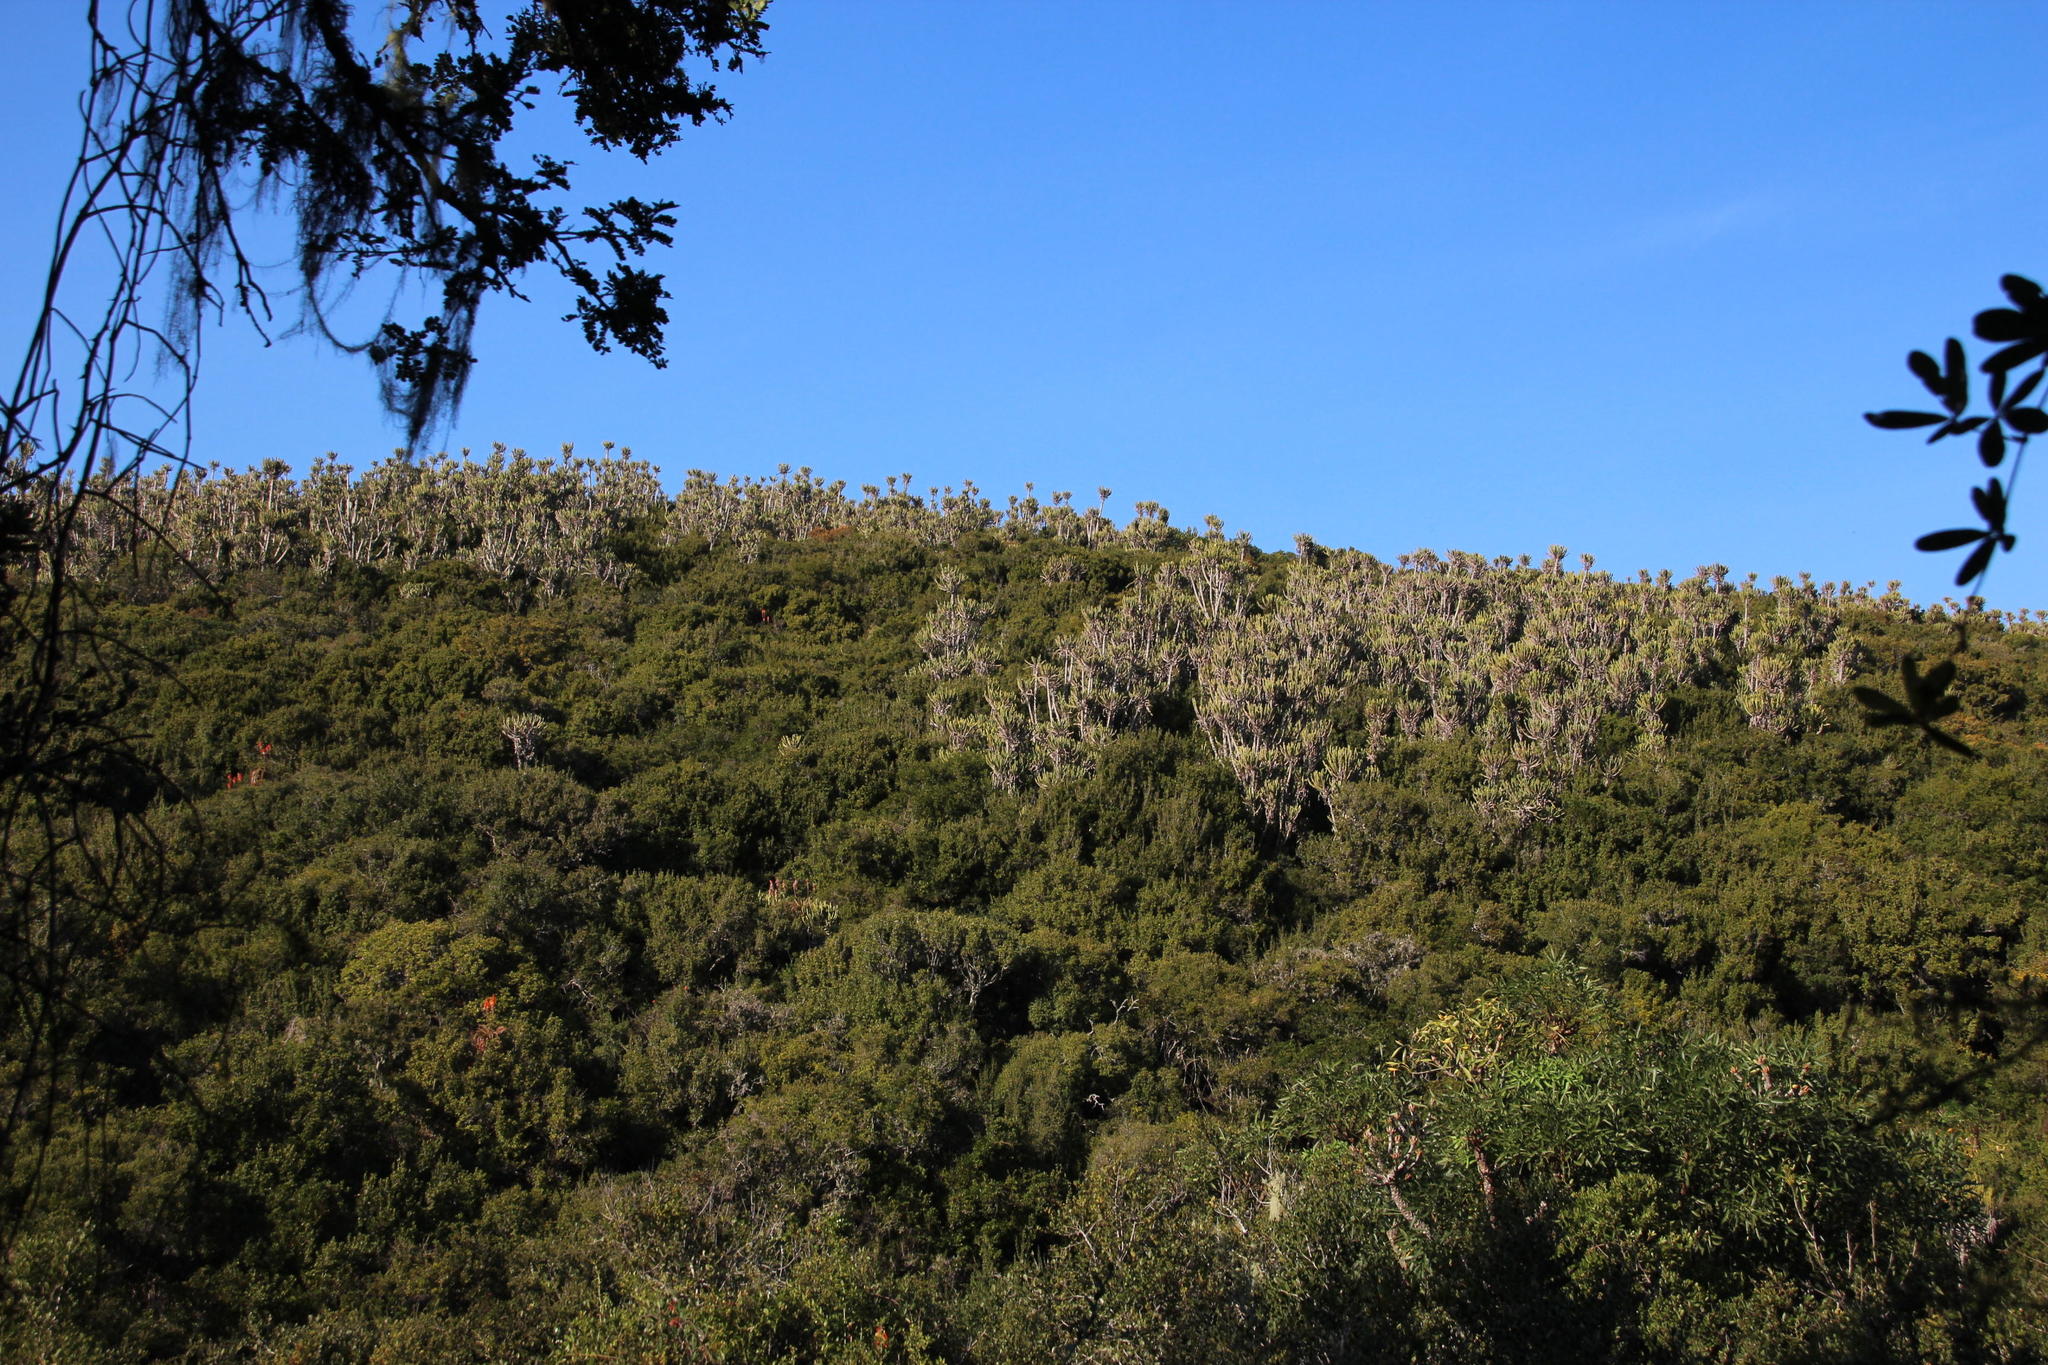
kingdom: Plantae
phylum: Tracheophyta
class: Magnoliopsida
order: Malpighiales
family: Euphorbiaceae
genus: Euphorbia
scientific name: Euphorbia triangularis
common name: Chandelier tree
